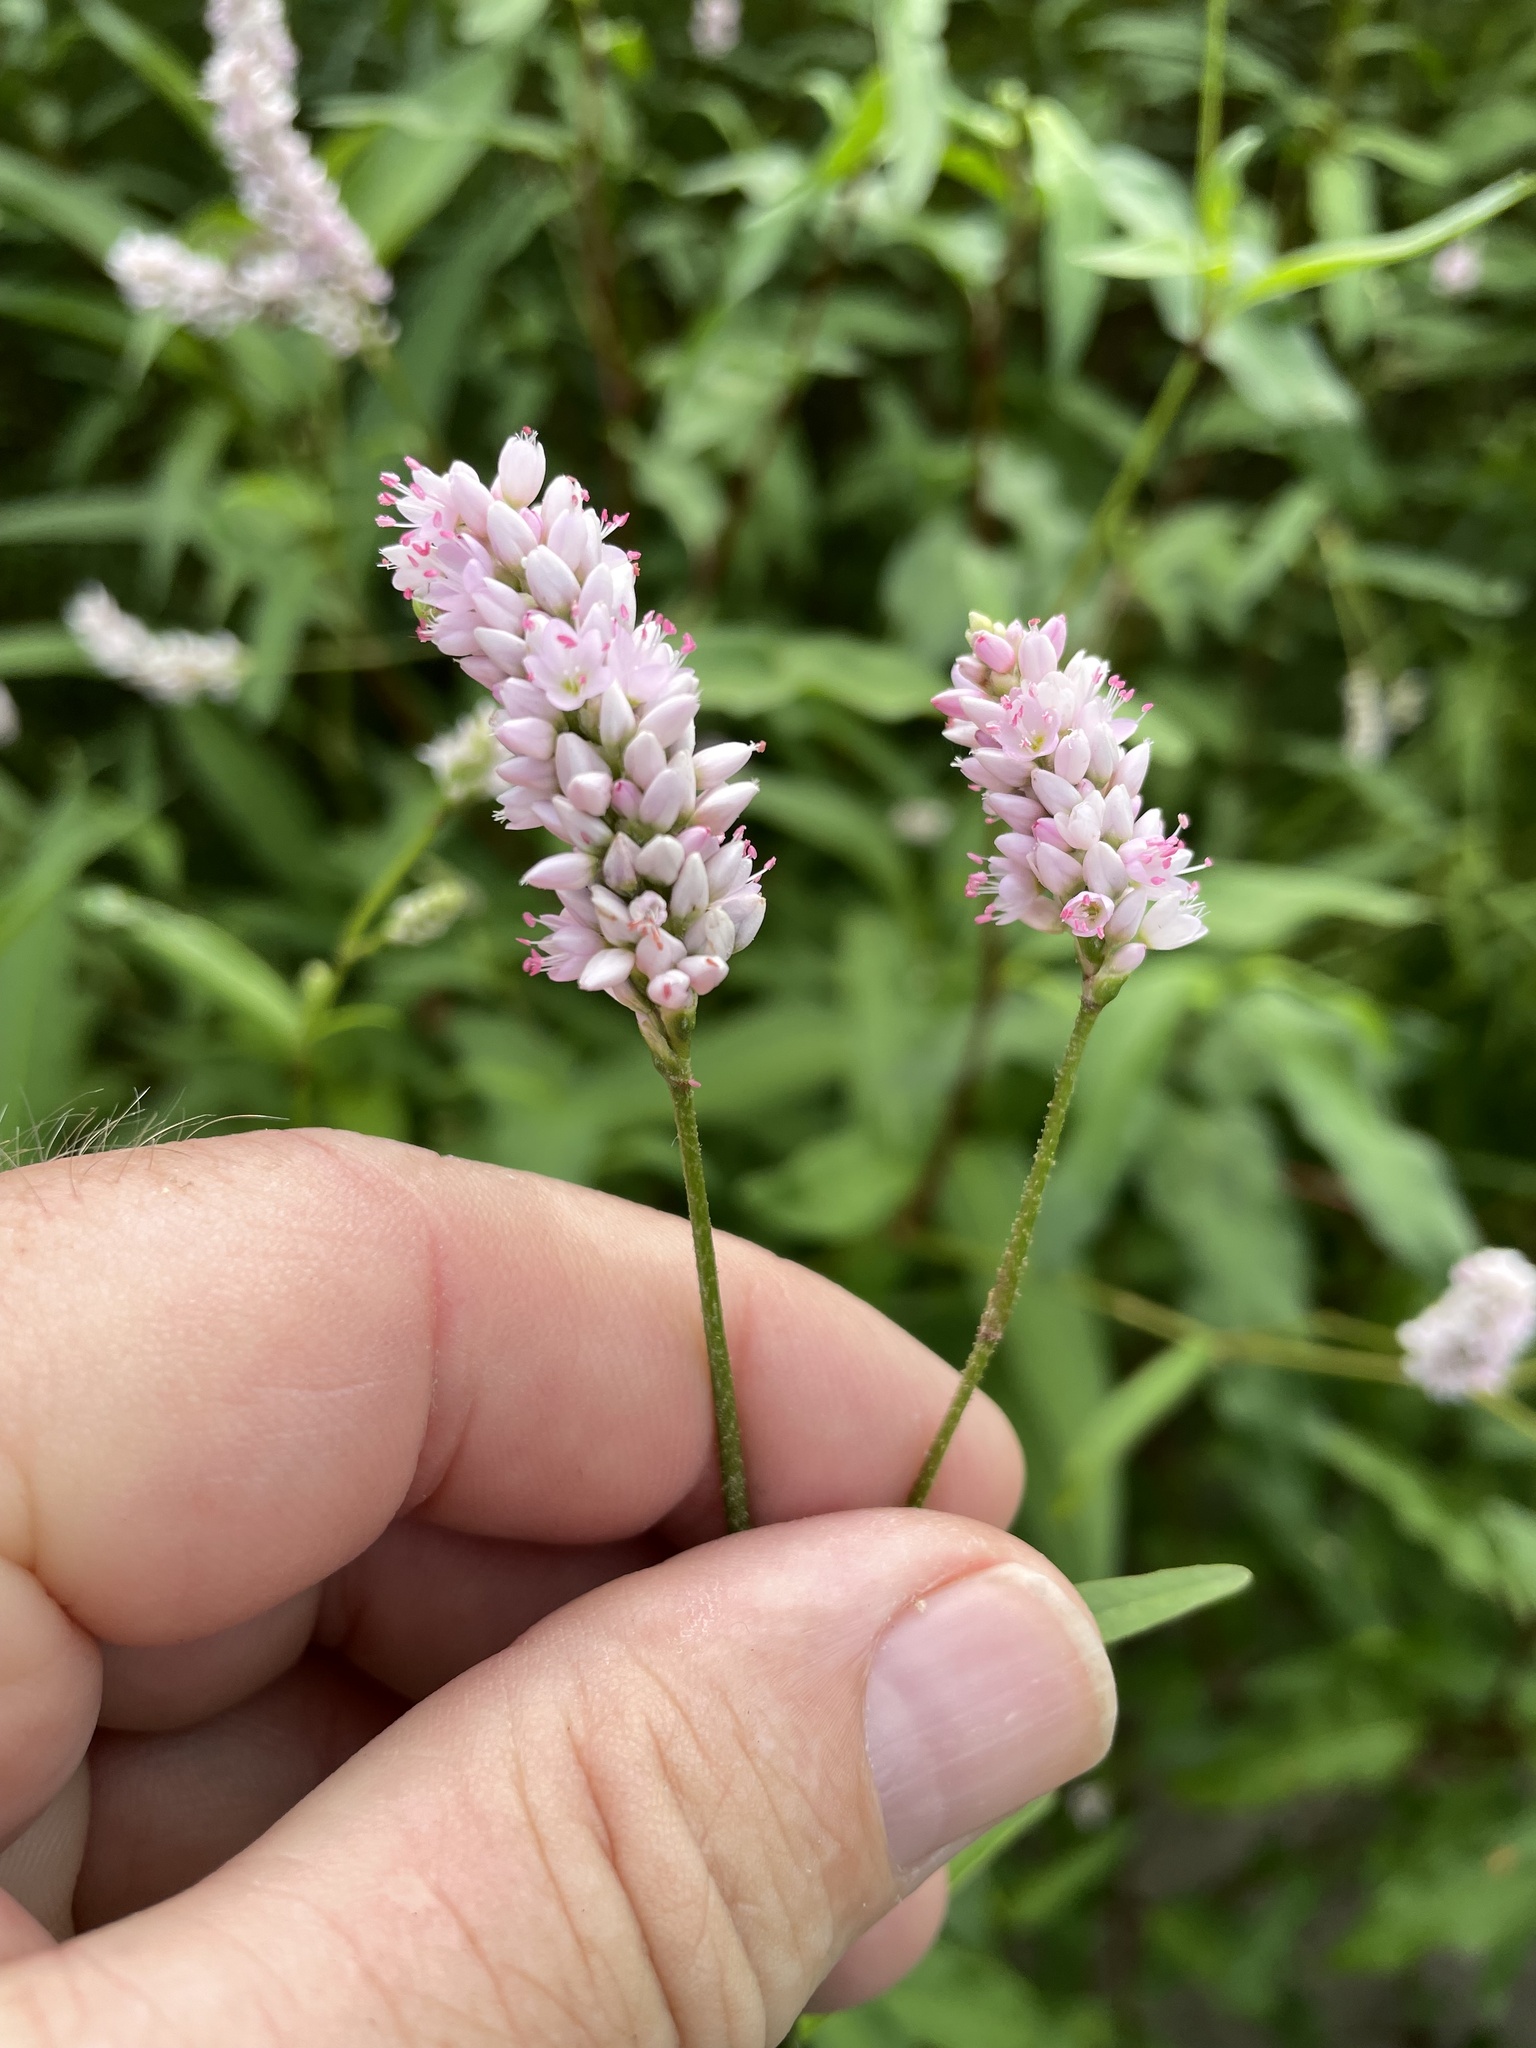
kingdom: Plantae
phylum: Tracheophyta
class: Magnoliopsida
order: Caryophyllales
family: Polygonaceae
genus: Persicaria
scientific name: Persicaria bicornis
